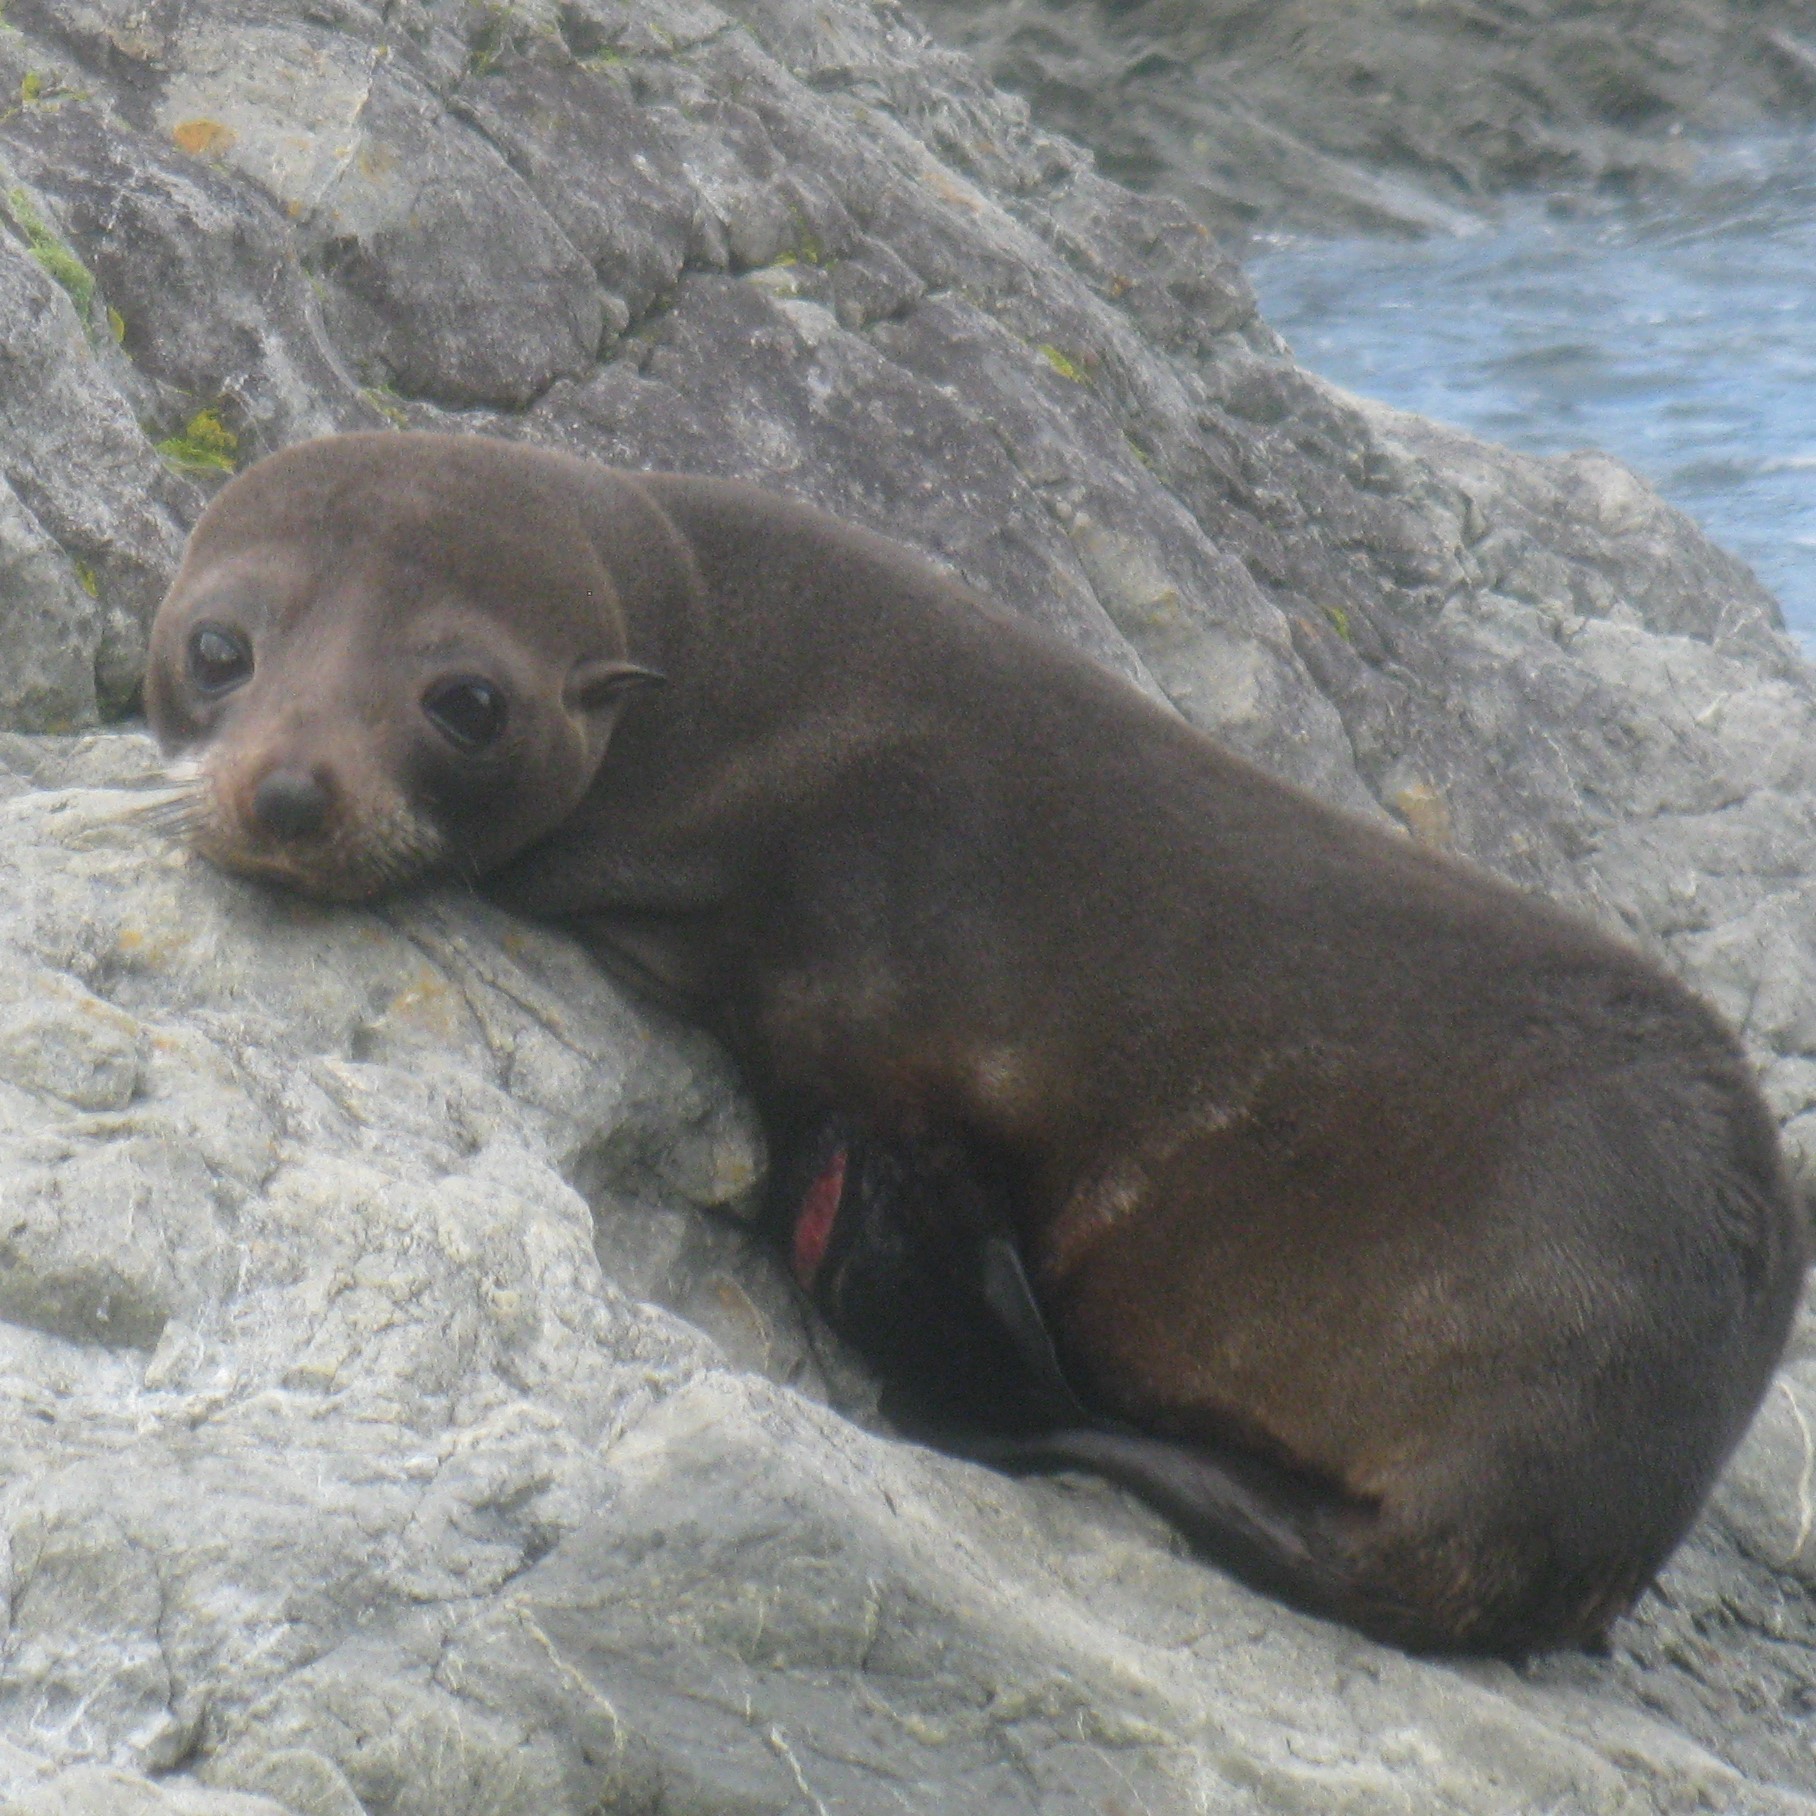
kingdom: Animalia
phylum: Chordata
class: Mammalia
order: Carnivora
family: Otariidae
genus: Arctocephalus
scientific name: Arctocephalus forsteri
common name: New zealand fur seal
